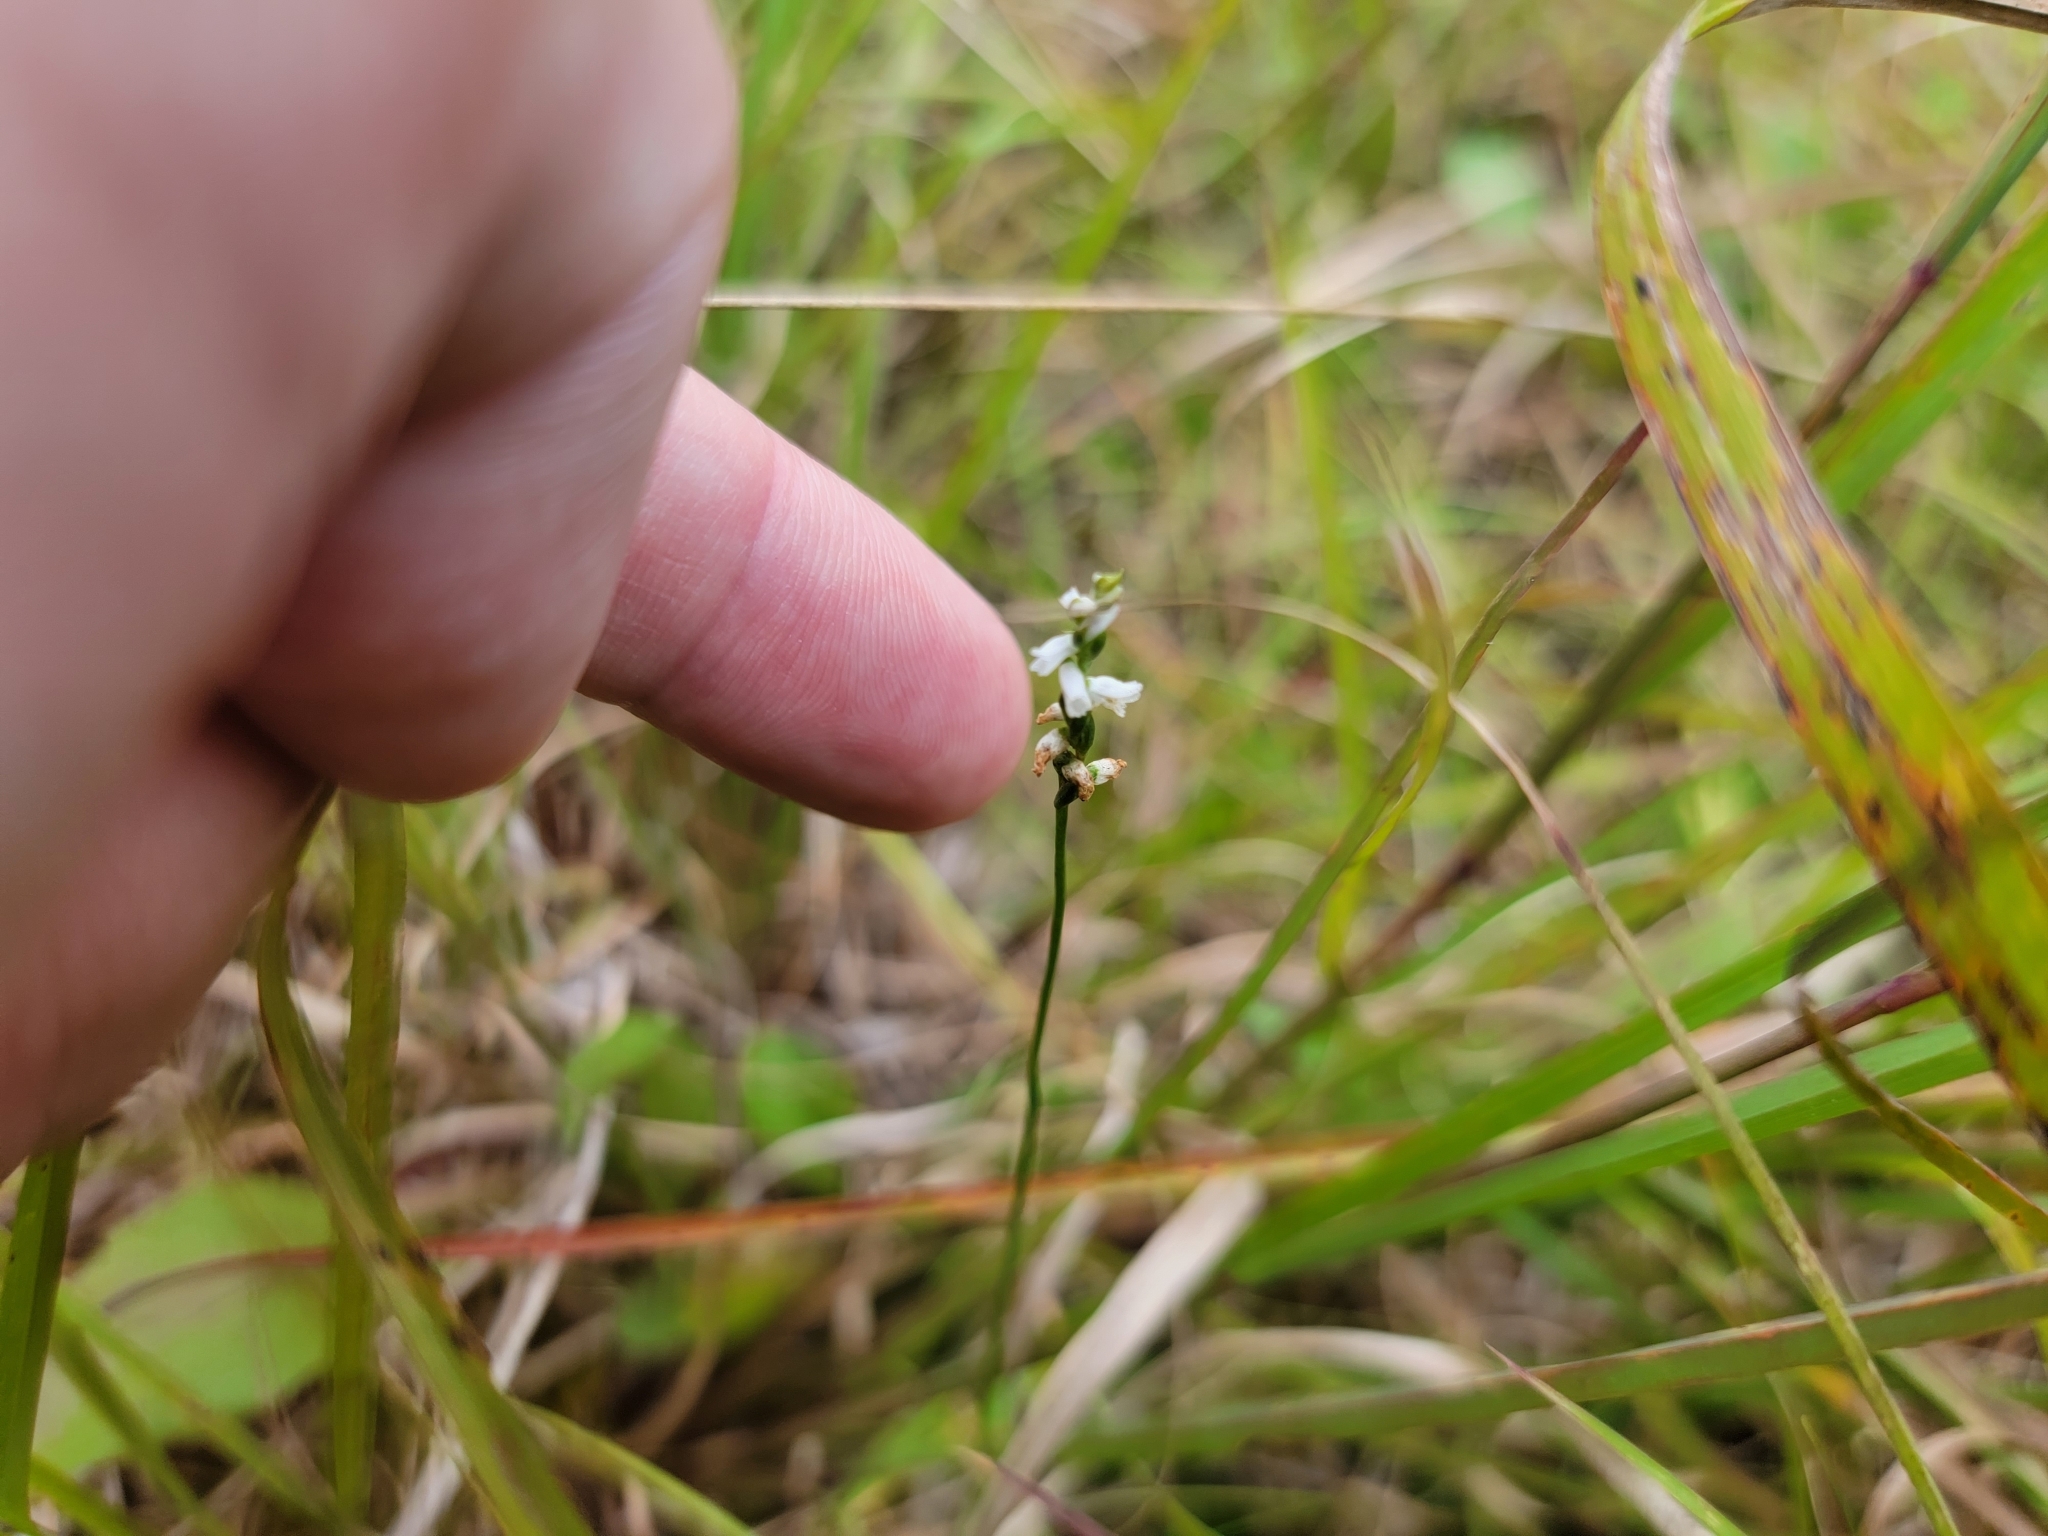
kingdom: Plantae
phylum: Tracheophyta
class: Liliopsida
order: Asparagales
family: Orchidaceae
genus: Spiranthes
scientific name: Spiranthes tuberosa
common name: Little ladies'-tresses
